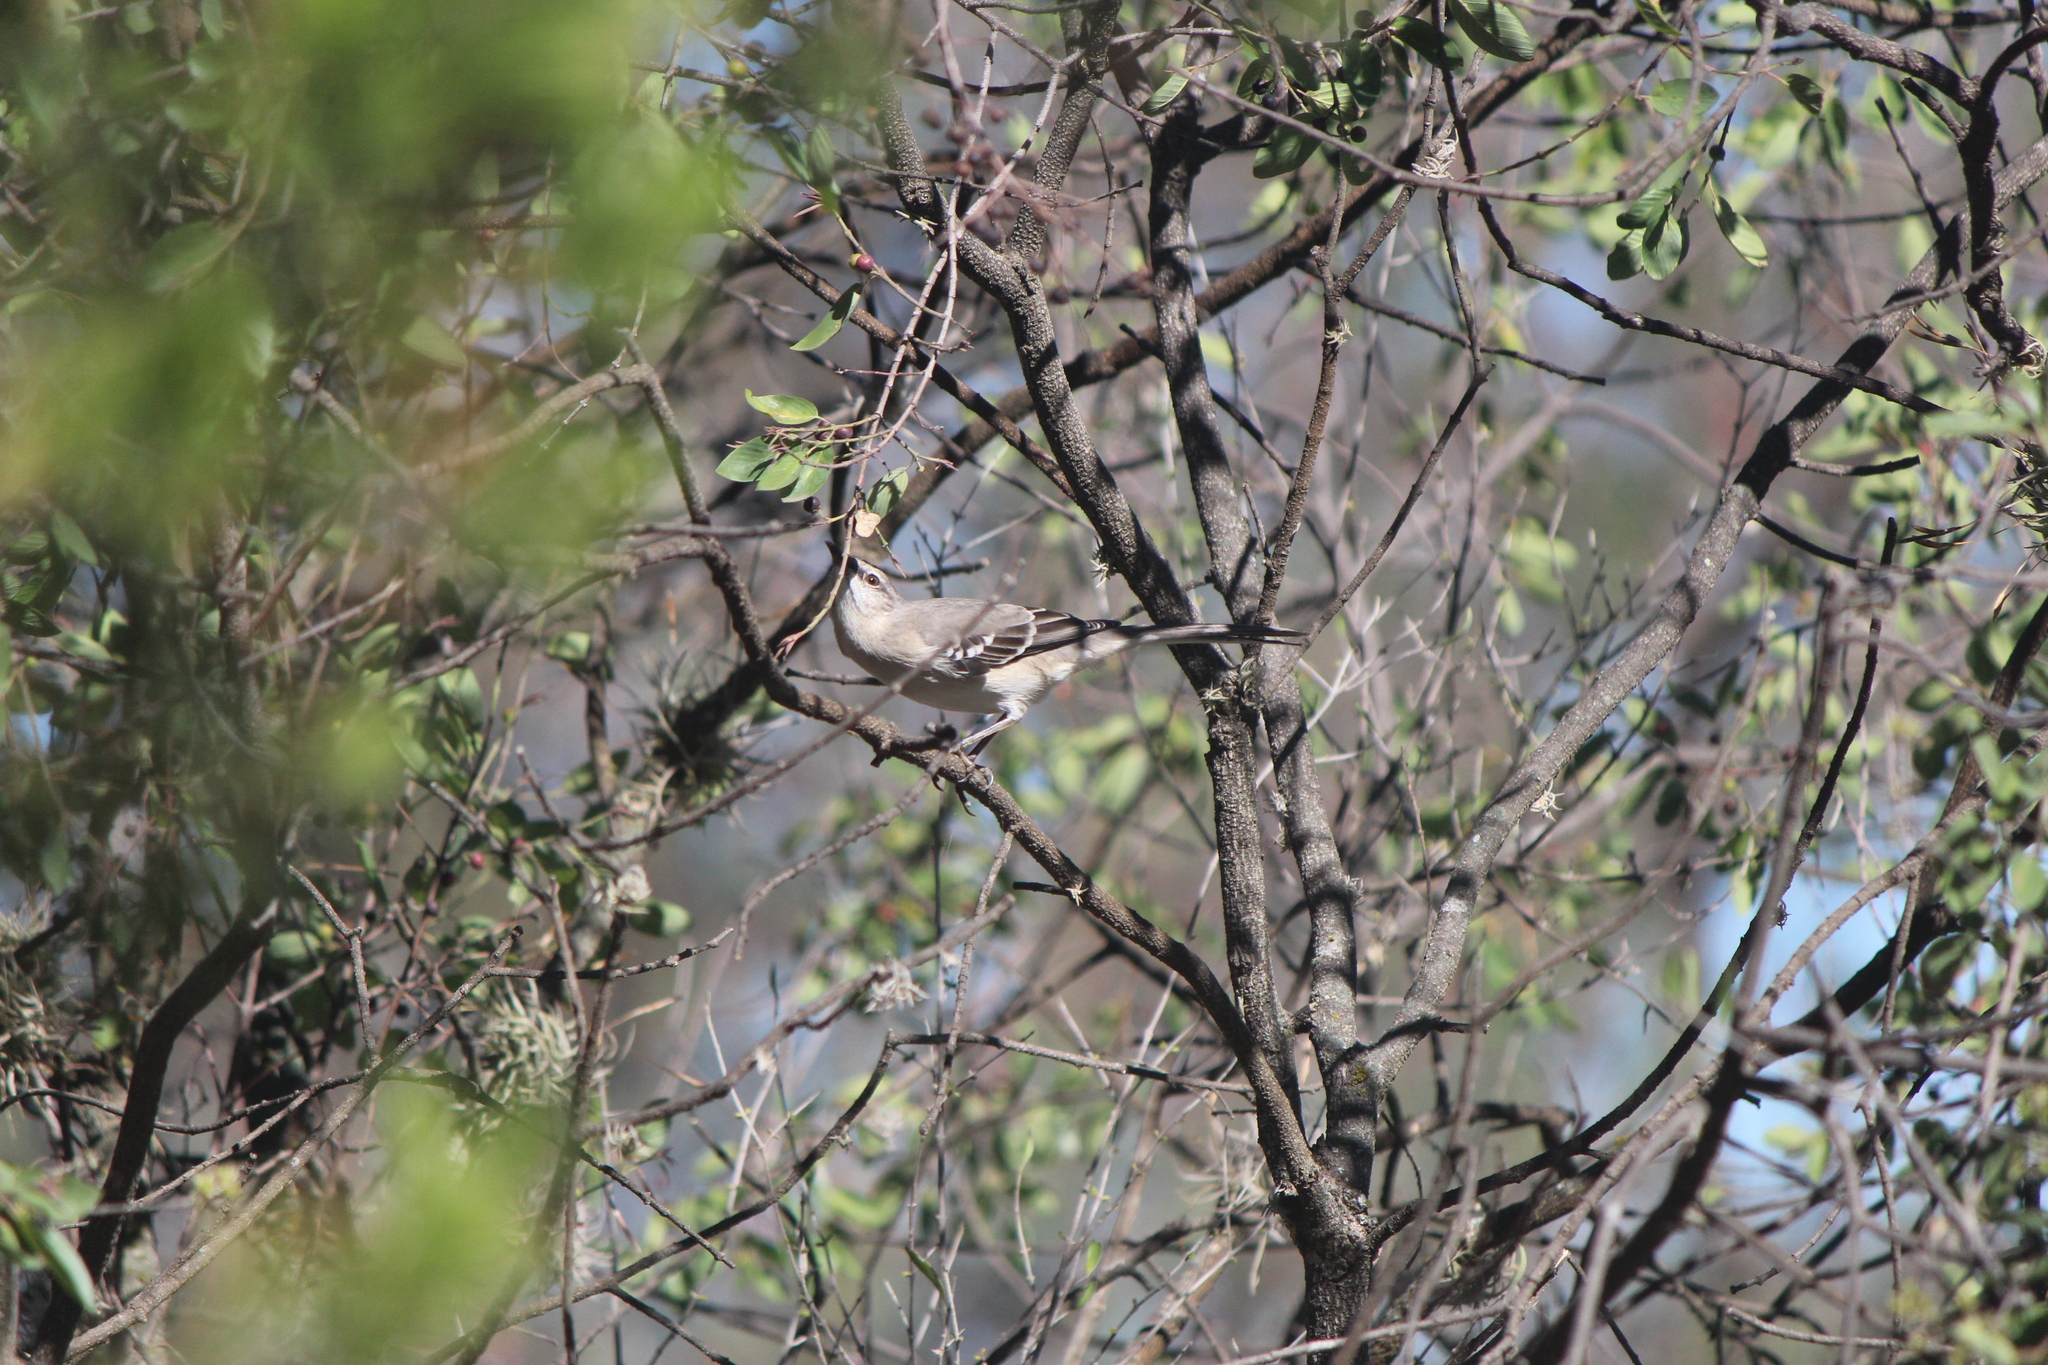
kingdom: Animalia
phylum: Chordata
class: Aves
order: Passeriformes
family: Mimidae
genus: Mimus
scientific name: Mimus polyglottos
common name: Northern mockingbird
